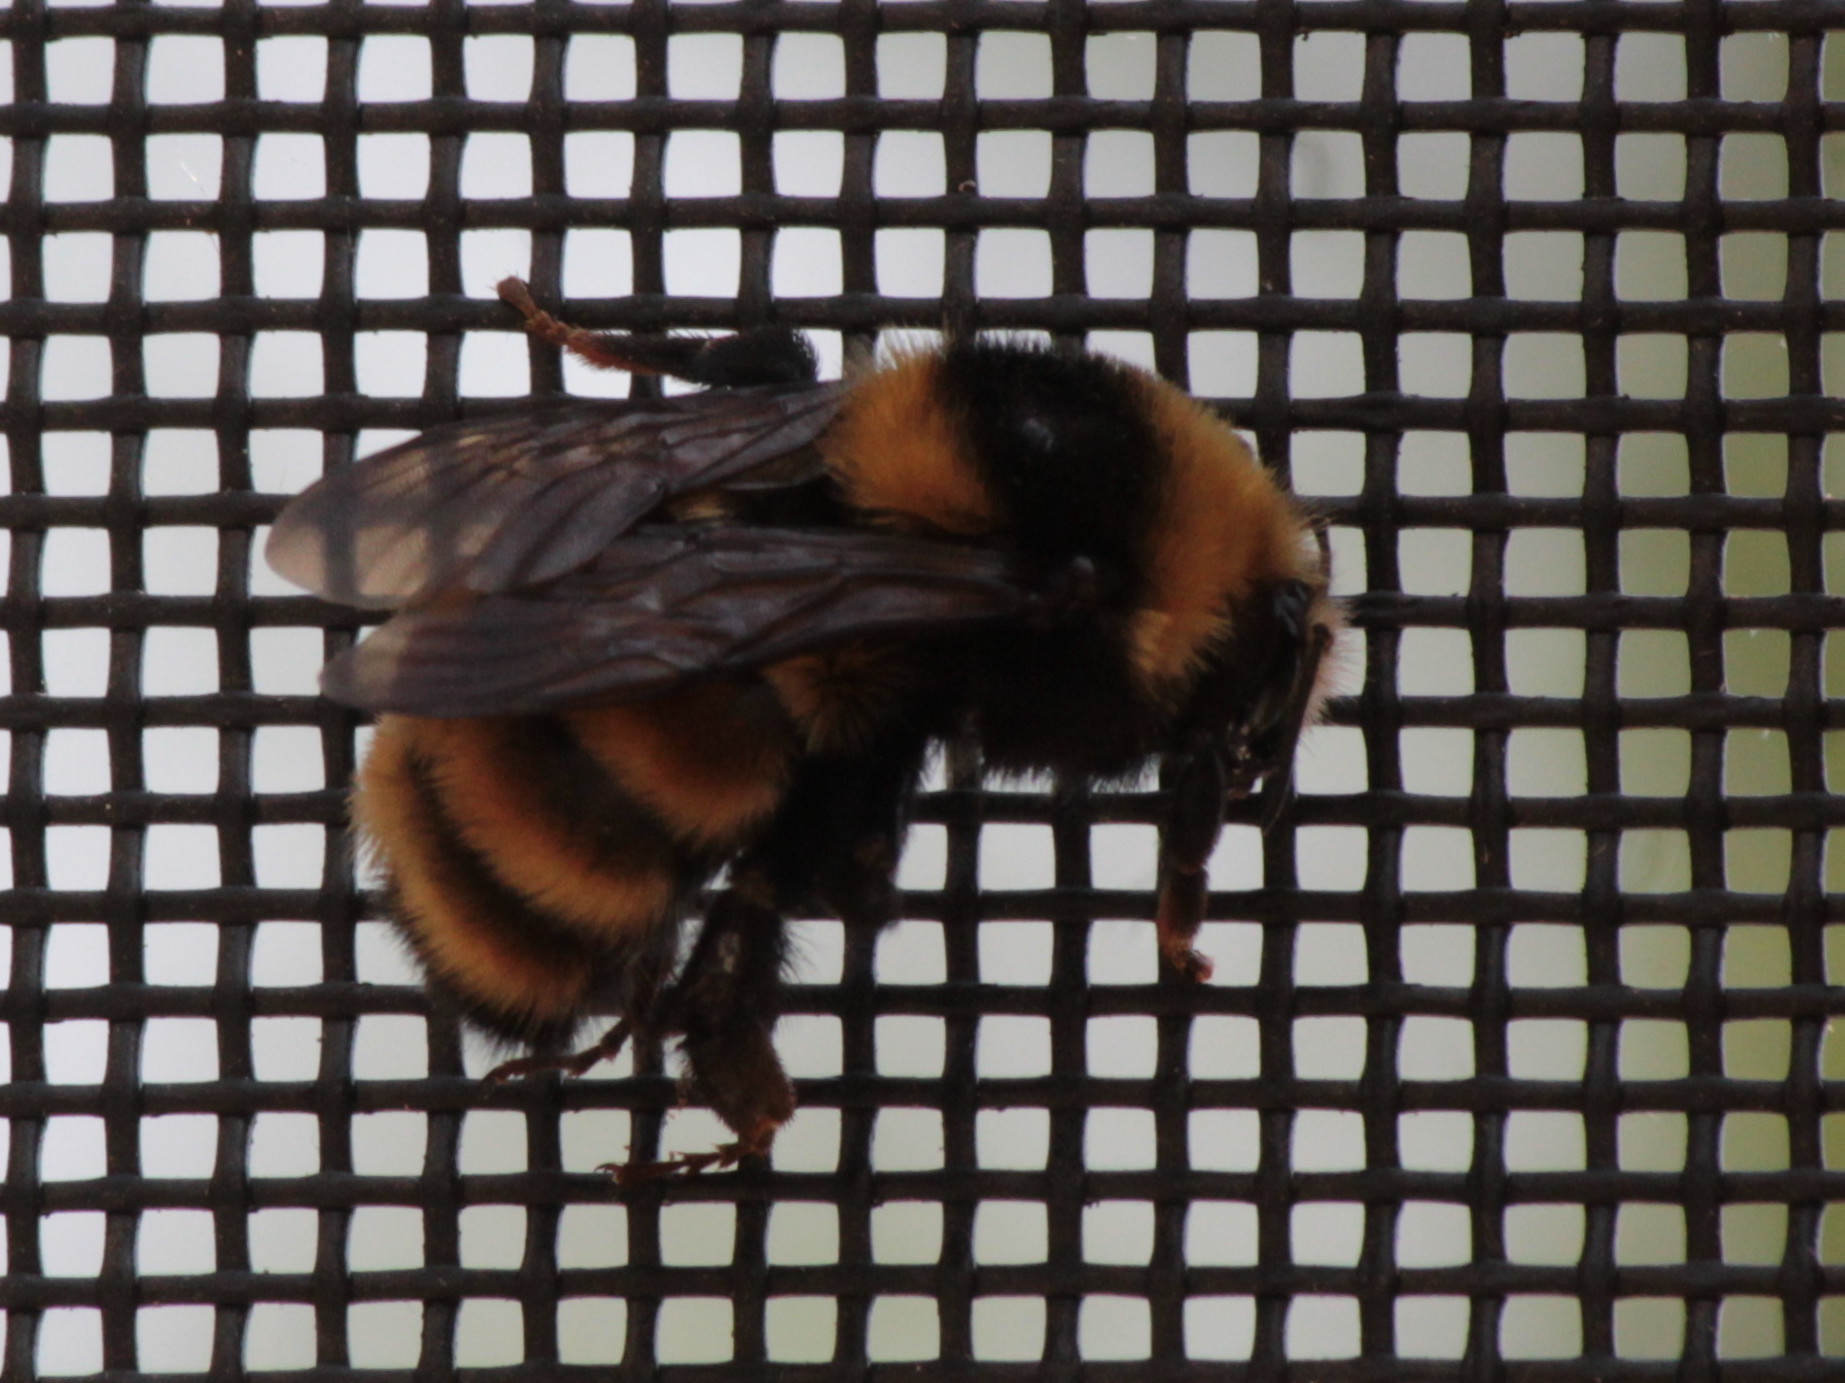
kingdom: Animalia
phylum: Arthropoda
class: Insecta
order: Hymenoptera
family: Apidae
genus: Bombus
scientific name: Bombus borealis
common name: Northern amber bumble bee
